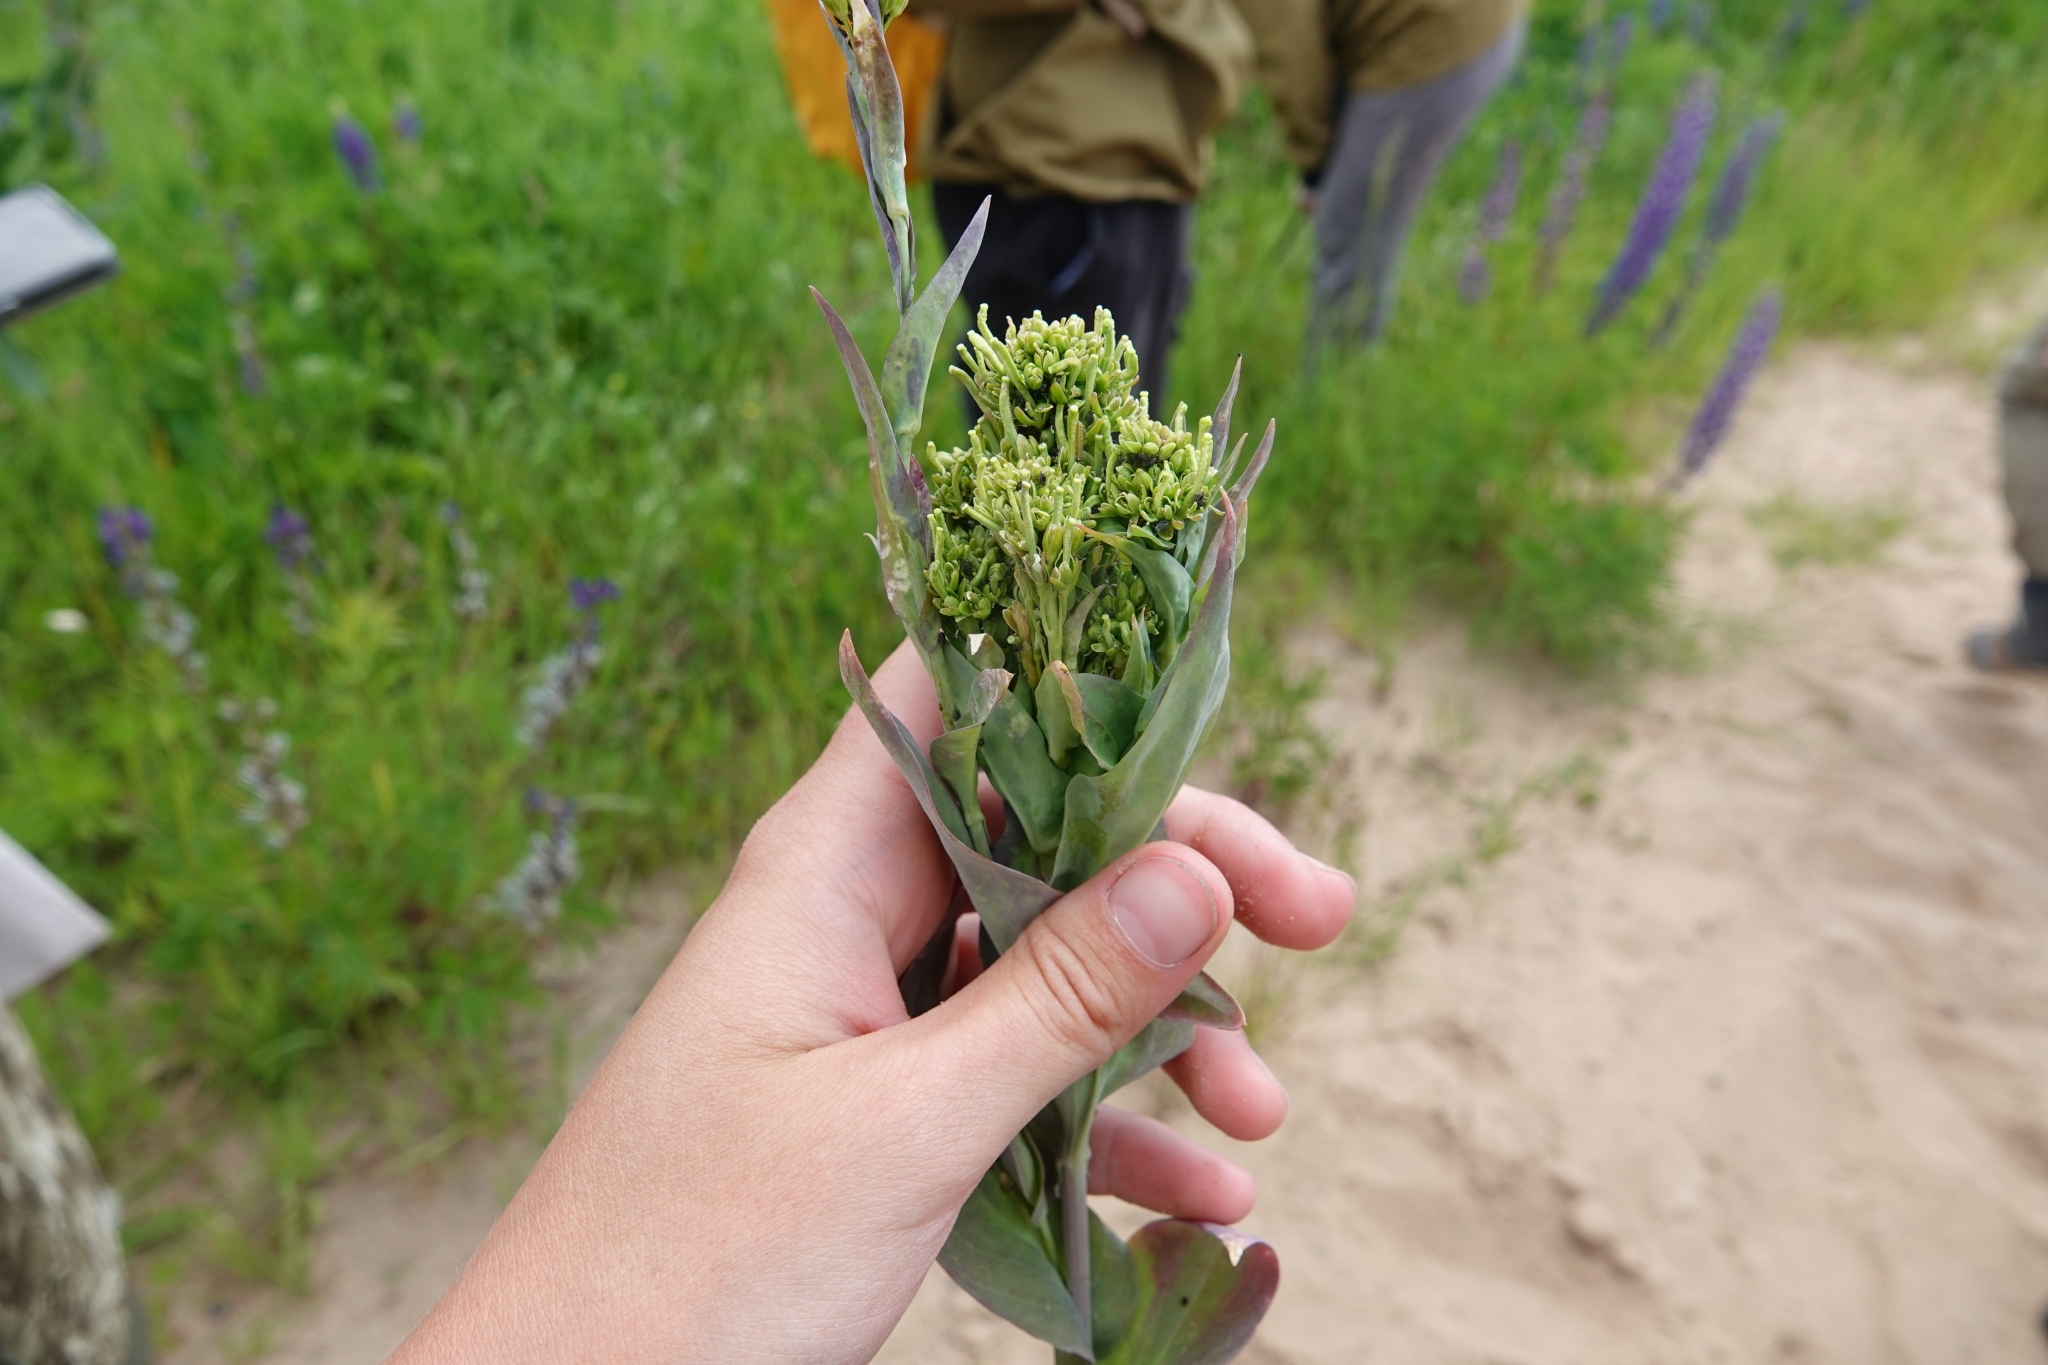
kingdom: Plantae
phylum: Tracheophyta
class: Magnoliopsida
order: Brassicales
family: Brassicaceae
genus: Turritis
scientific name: Turritis glabra
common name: Tower rockcress
